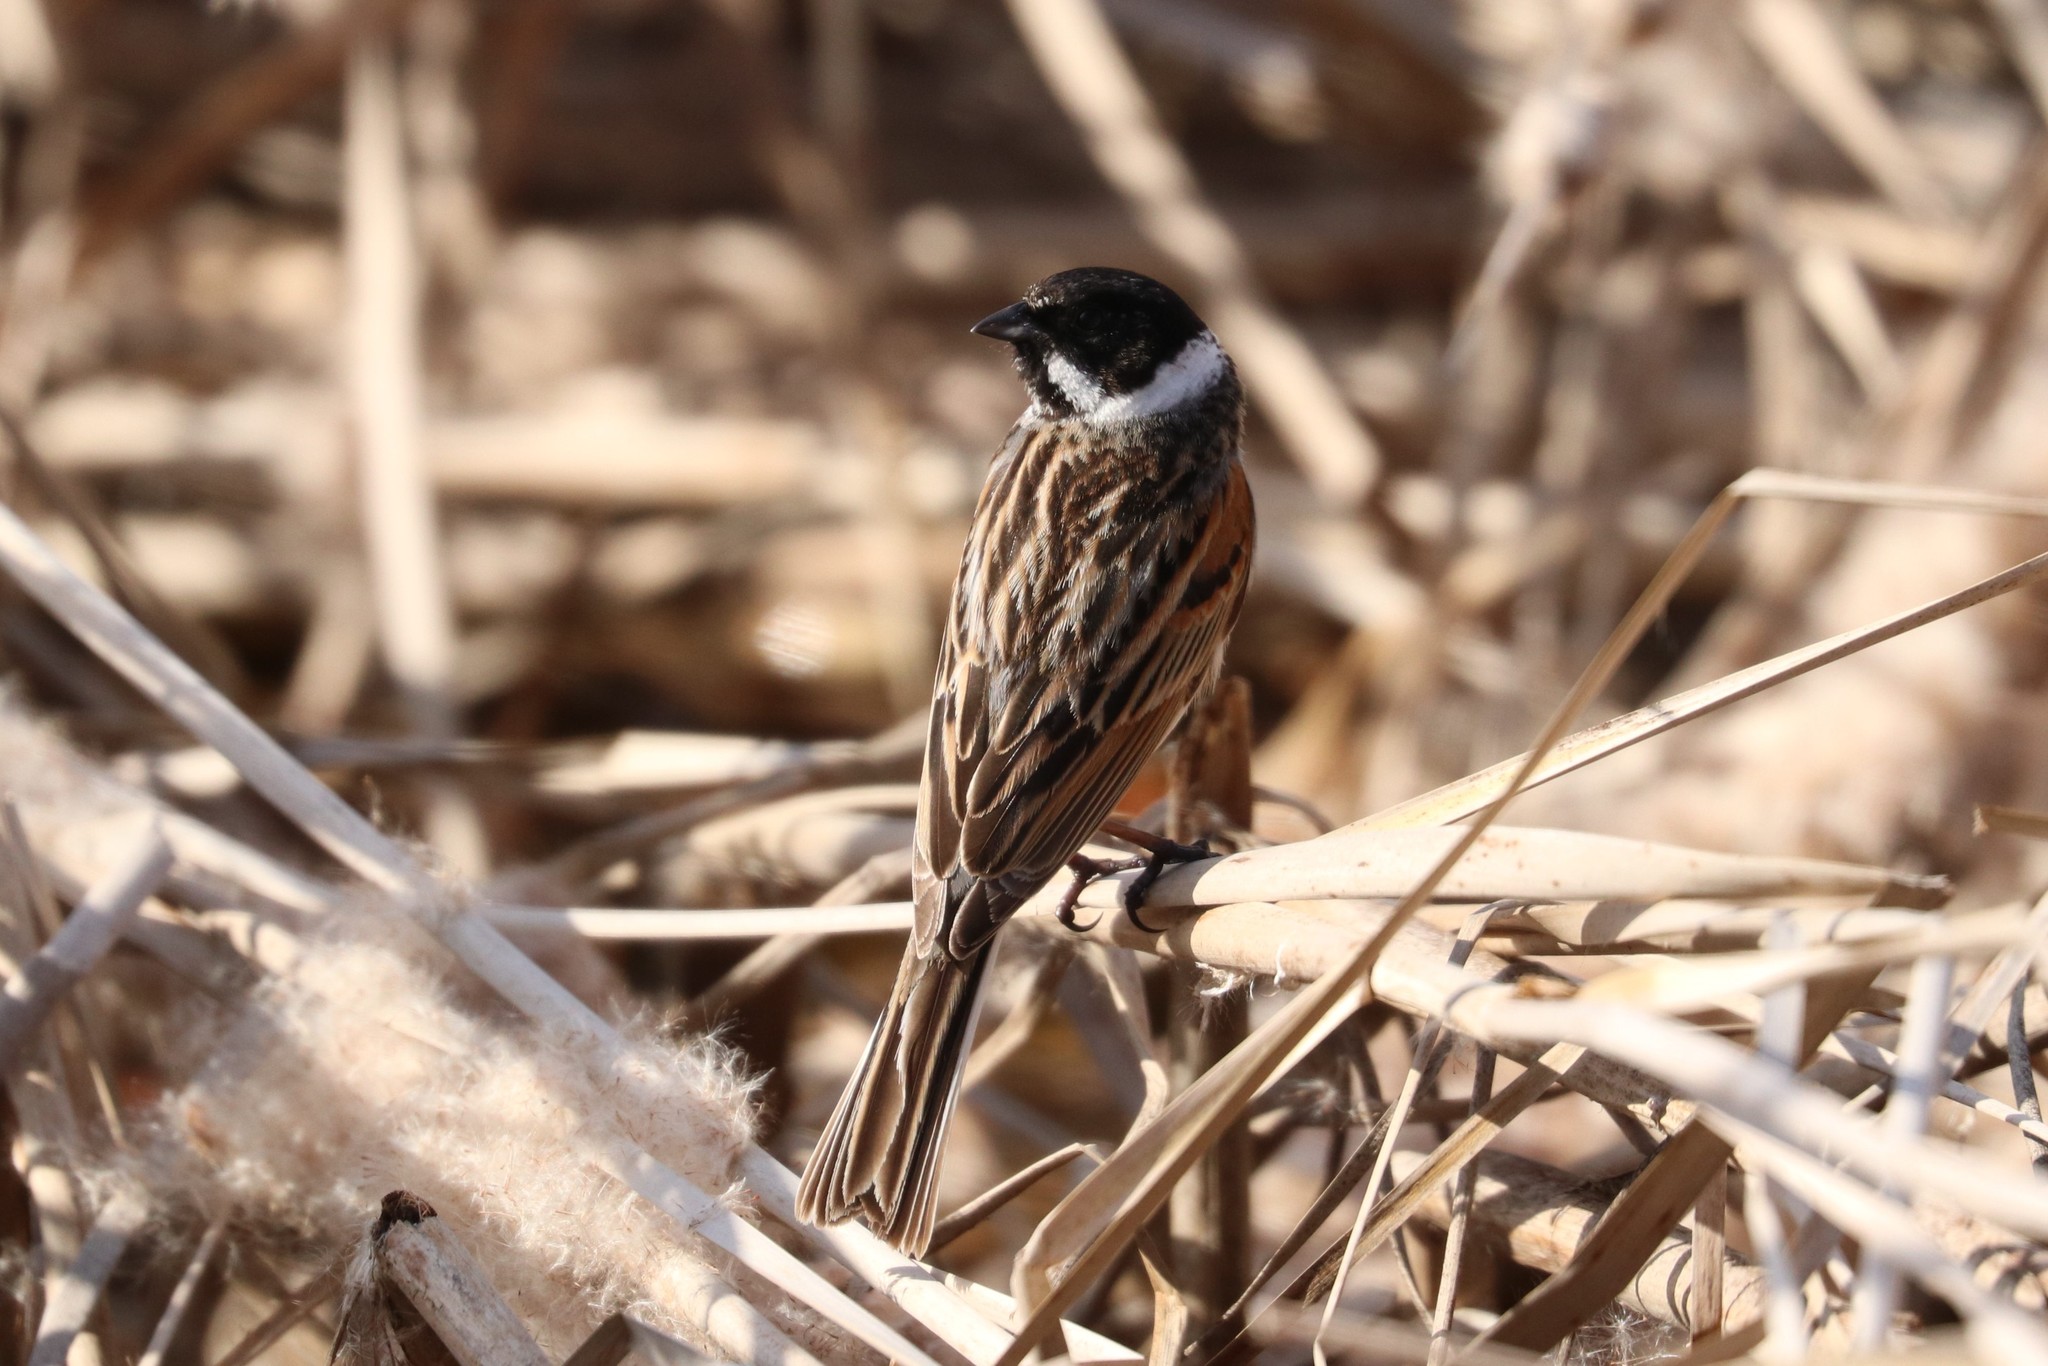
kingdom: Animalia
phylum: Chordata
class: Aves
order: Passeriformes
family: Emberizidae
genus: Emberiza
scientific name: Emberiza schoeniclus
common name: Reed bunting
